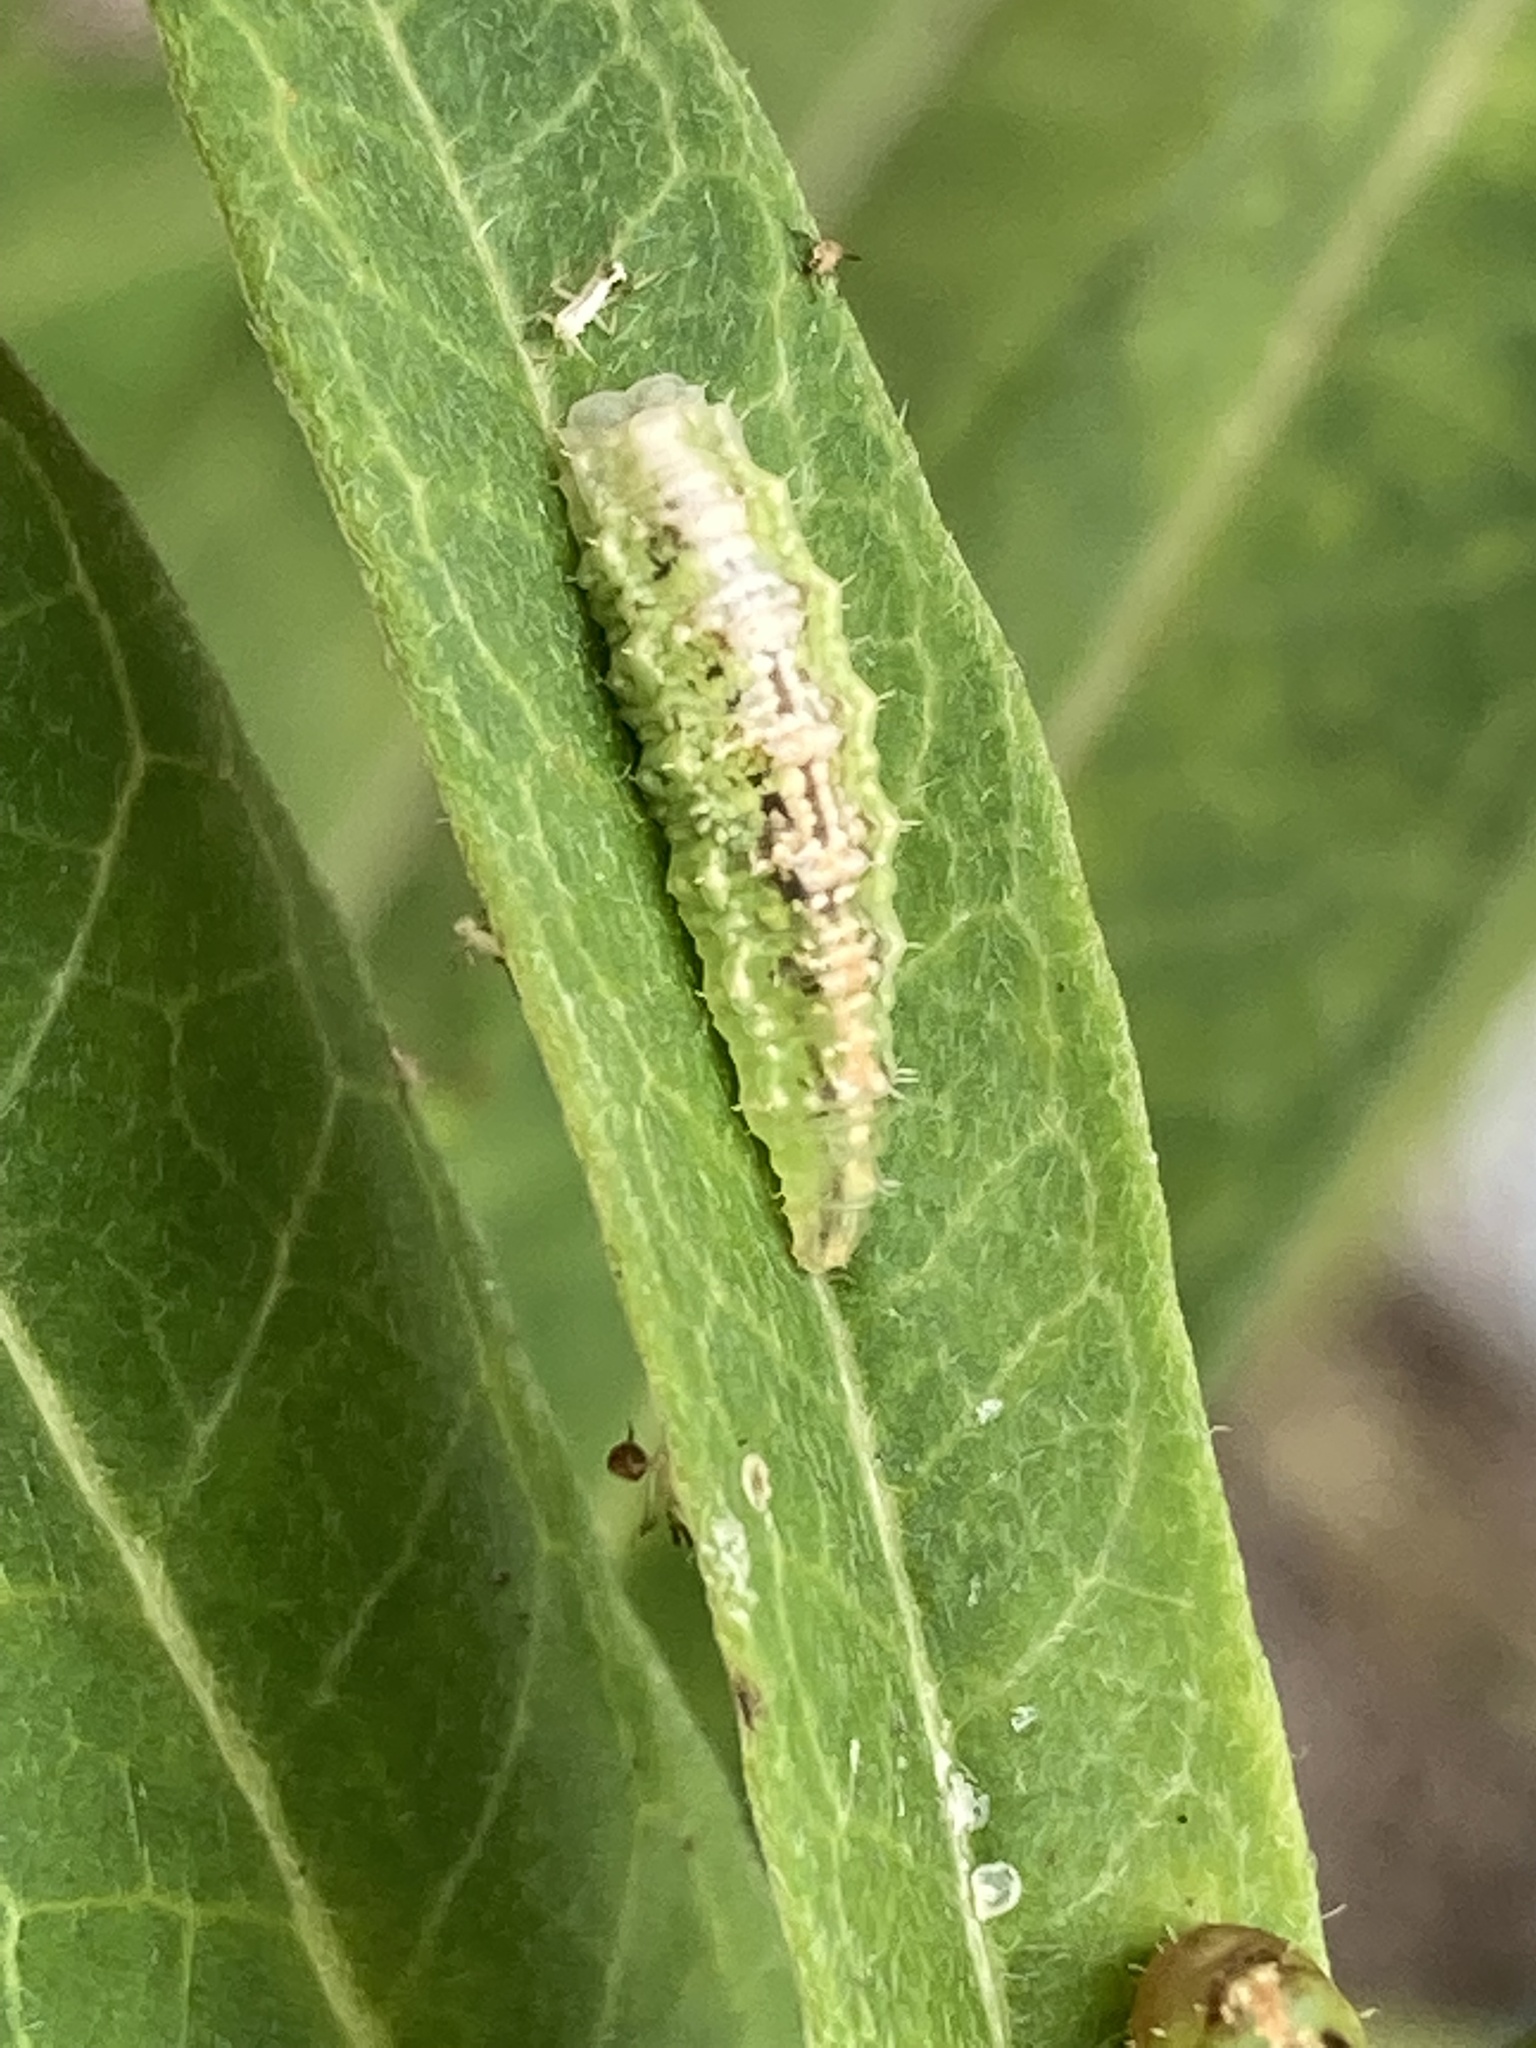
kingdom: Animalia
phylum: Arthropoda
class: Insecta
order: Diptera
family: Syrphidae
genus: Dioprosopa
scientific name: Dioprosopa clavatus
